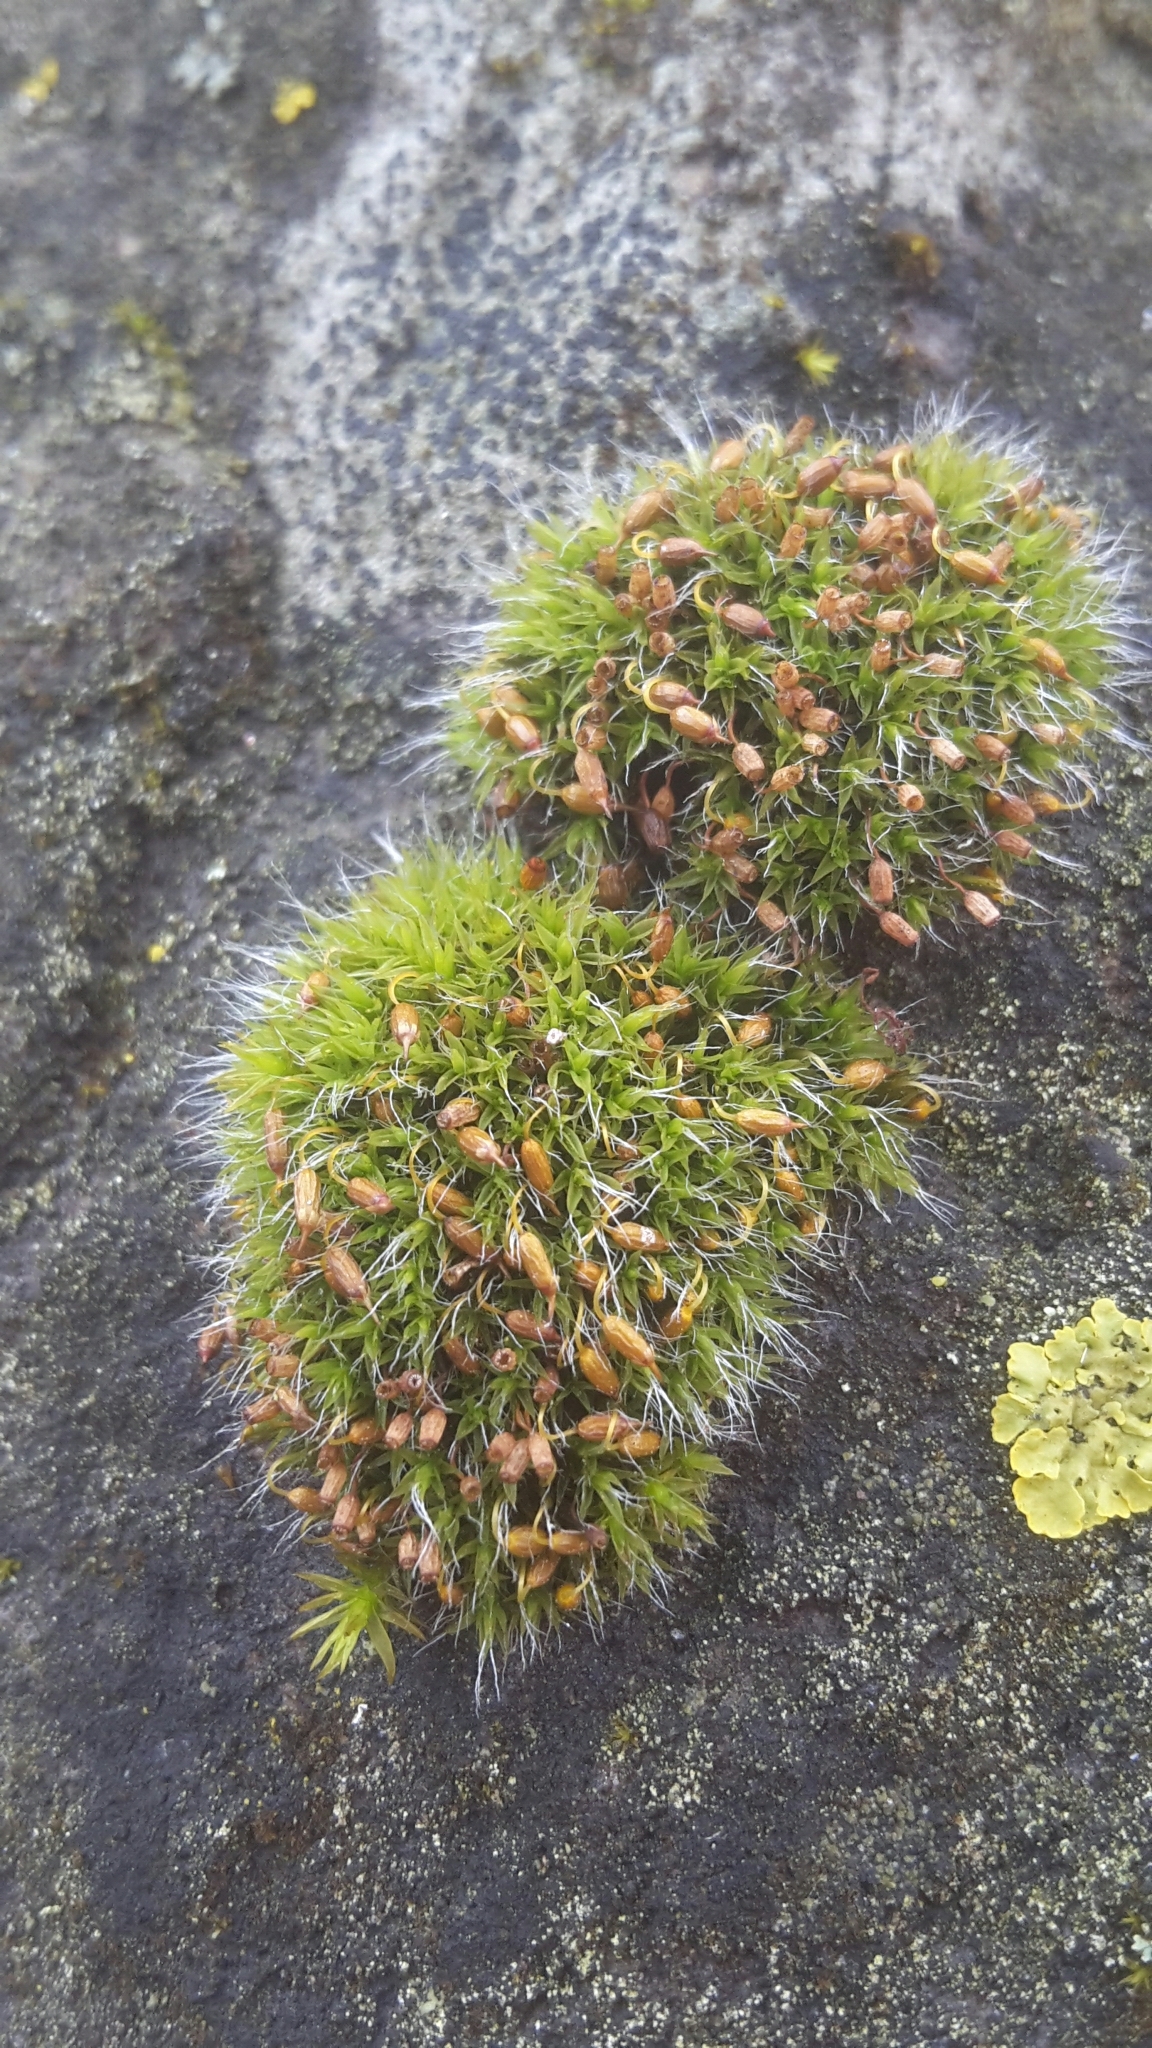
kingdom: Plantae
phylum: Bryophyta
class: Bryopsida
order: Grimmiales
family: Grimmiaceae
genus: Grimmia
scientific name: Grimmia pulvinata
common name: Grey-cushioned grimmia
